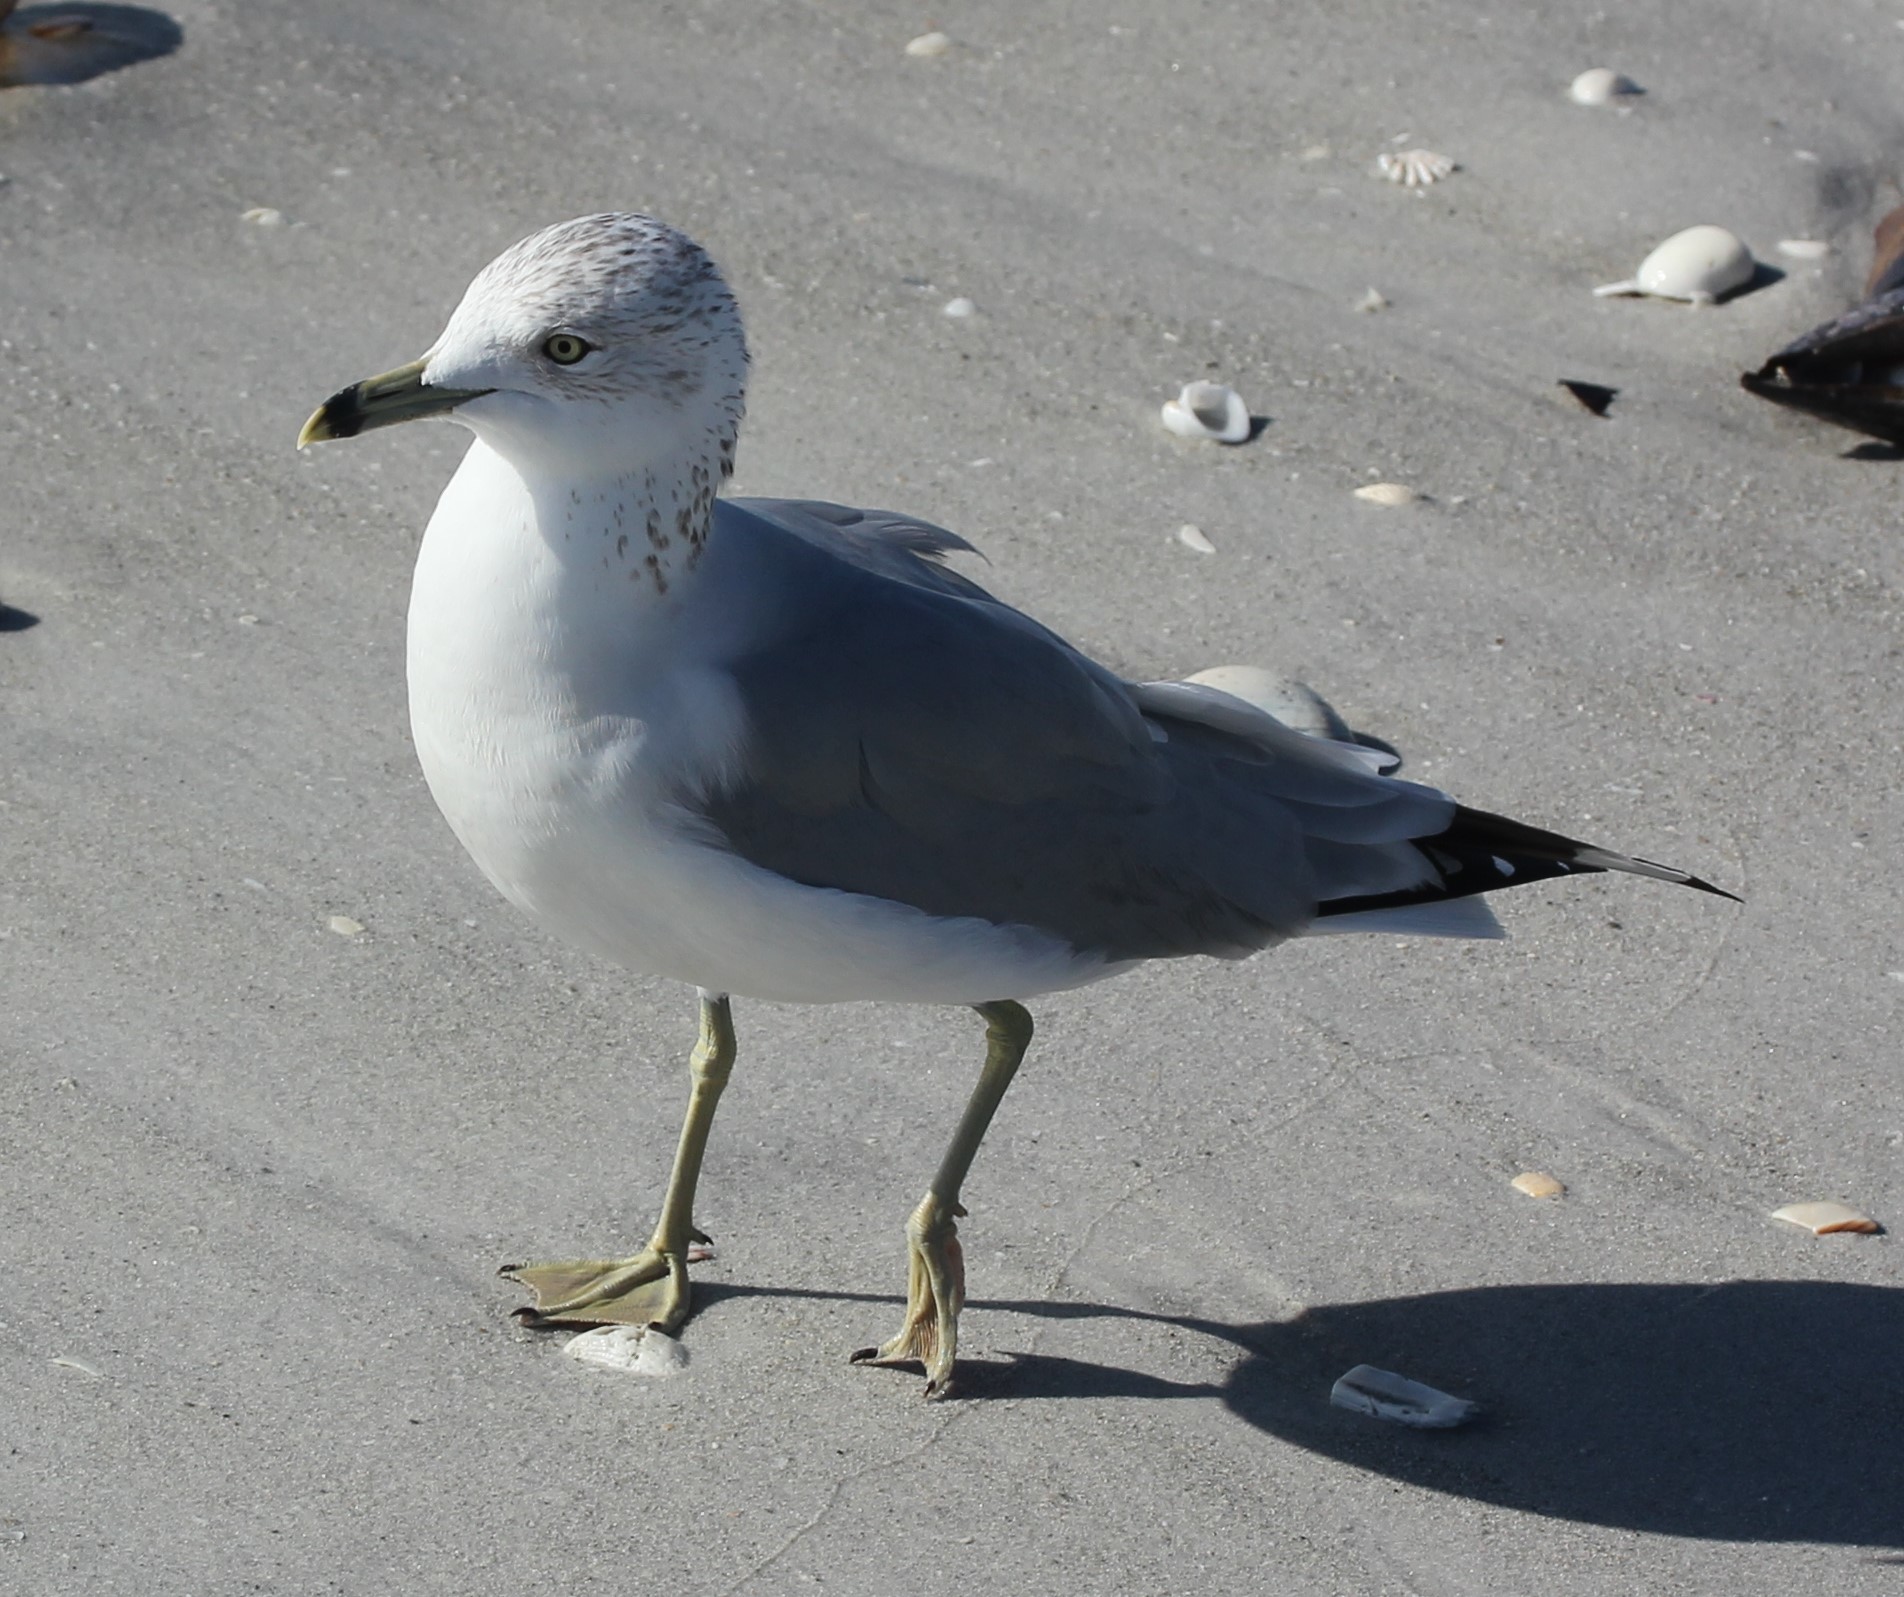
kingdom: Animalia
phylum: Chordata
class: Aves
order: Charadriiformes
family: Laridae
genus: Larus
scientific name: Larus delawarensis
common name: Ring-billed gull
